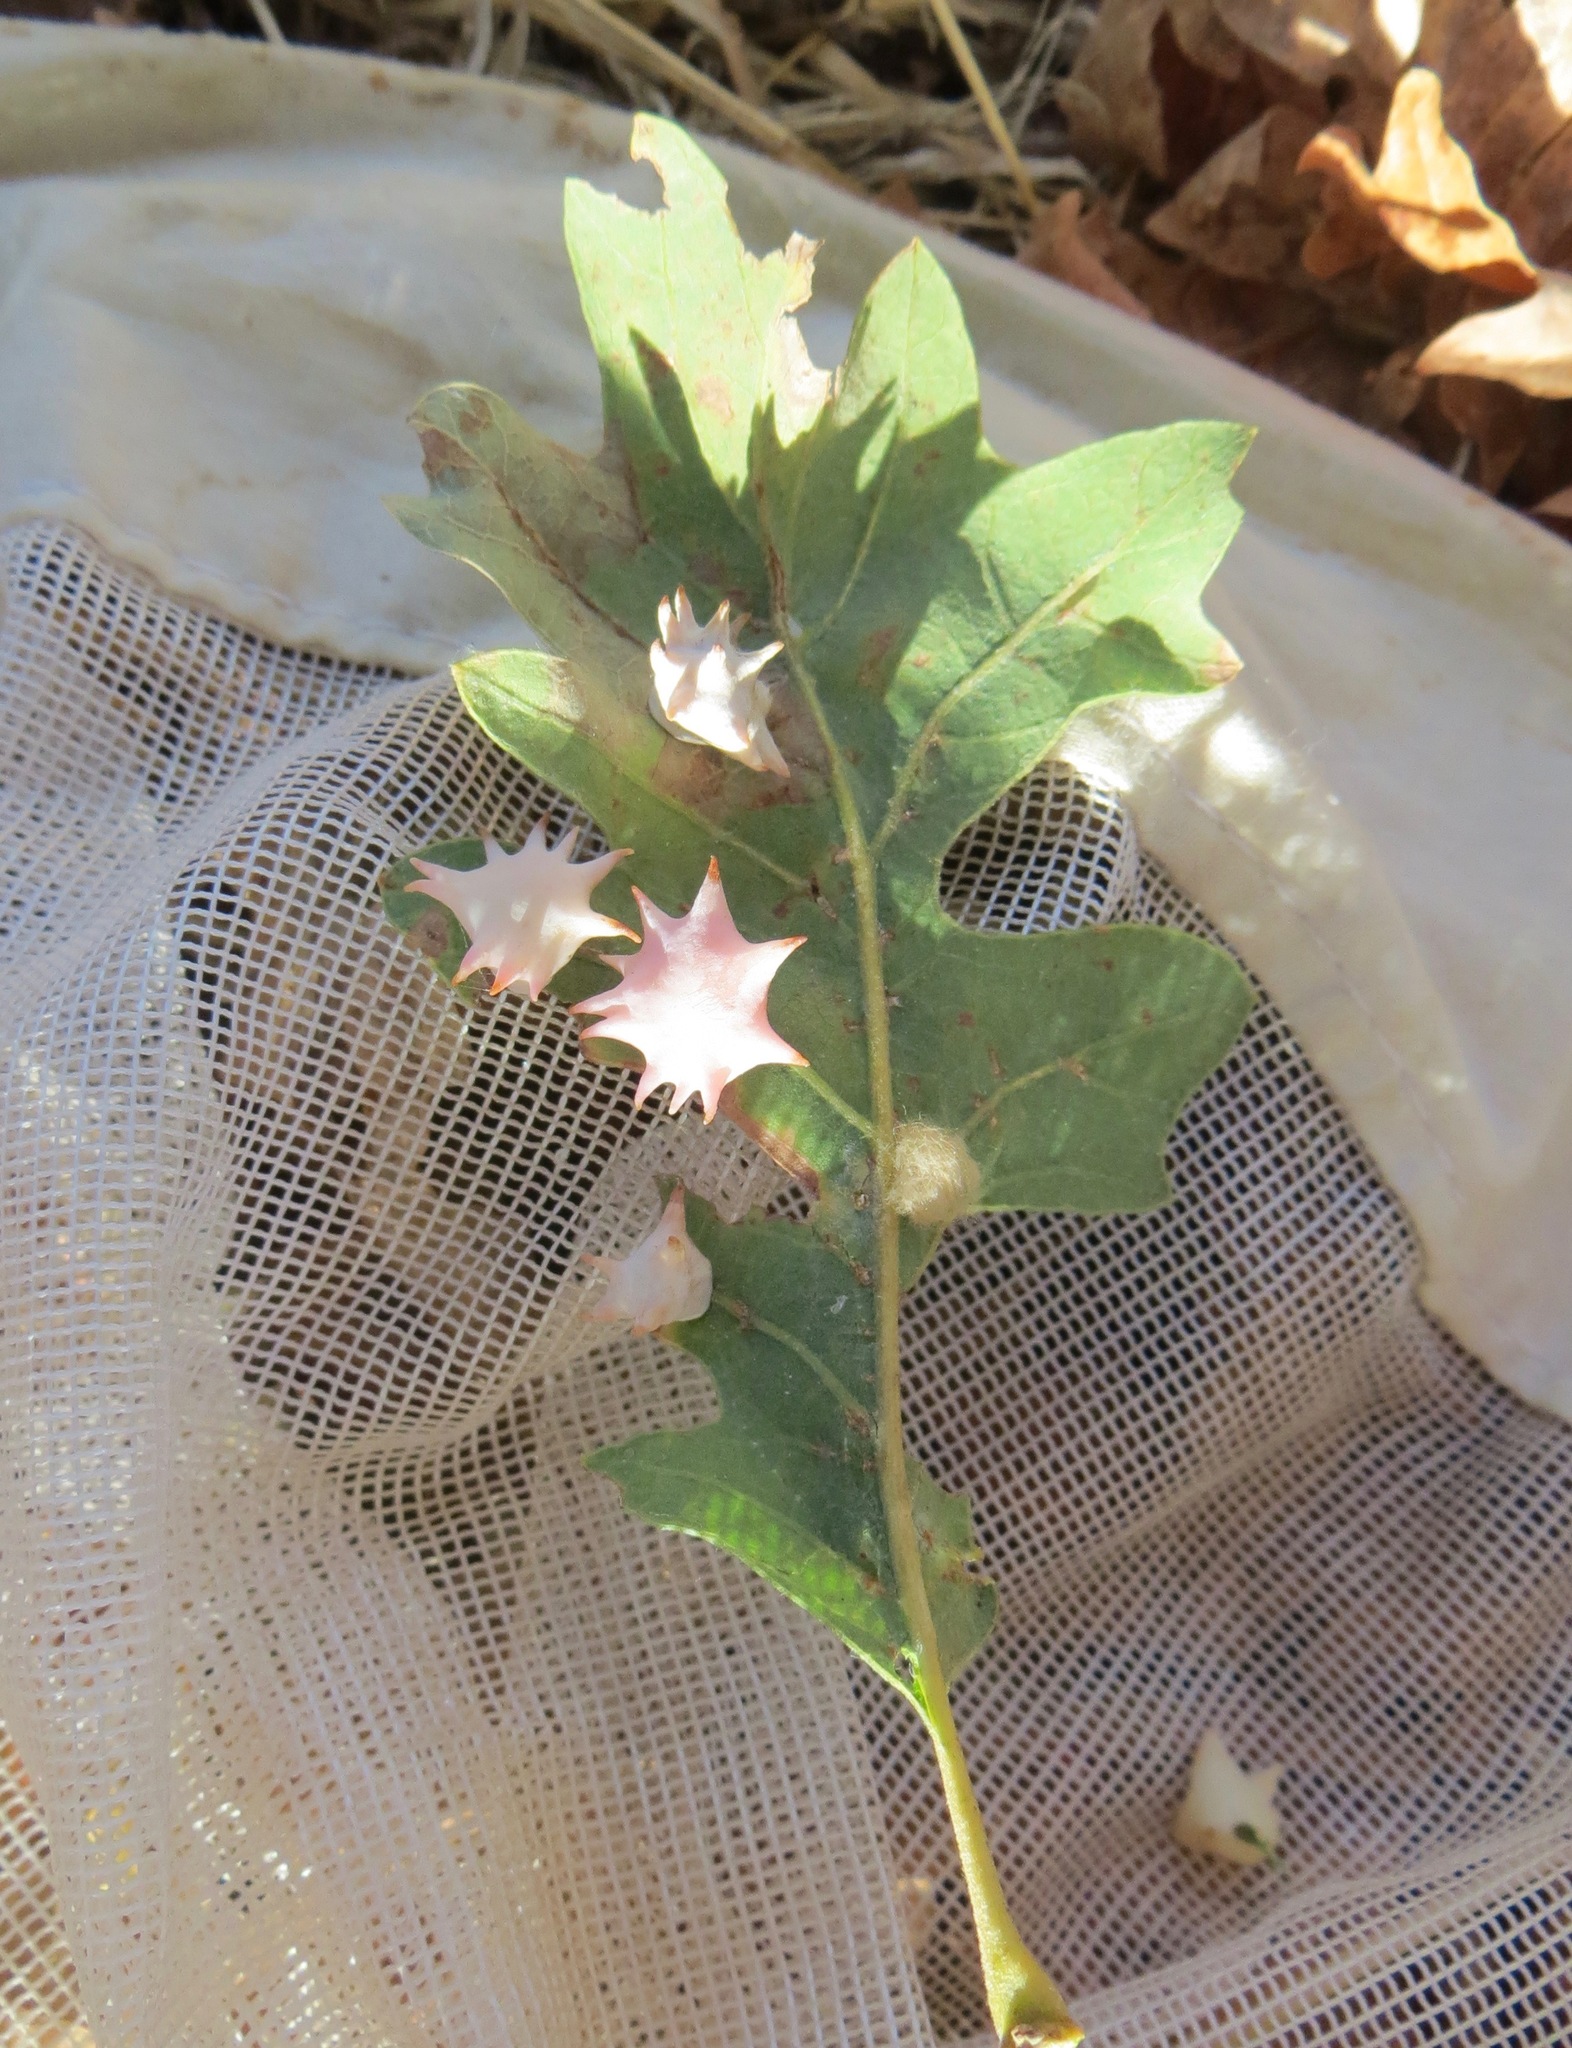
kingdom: Animalia
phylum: Arthropoda
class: Insecta
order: Hymenoptera
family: Cynipidae
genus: Cynips
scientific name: Cynips douglasi
